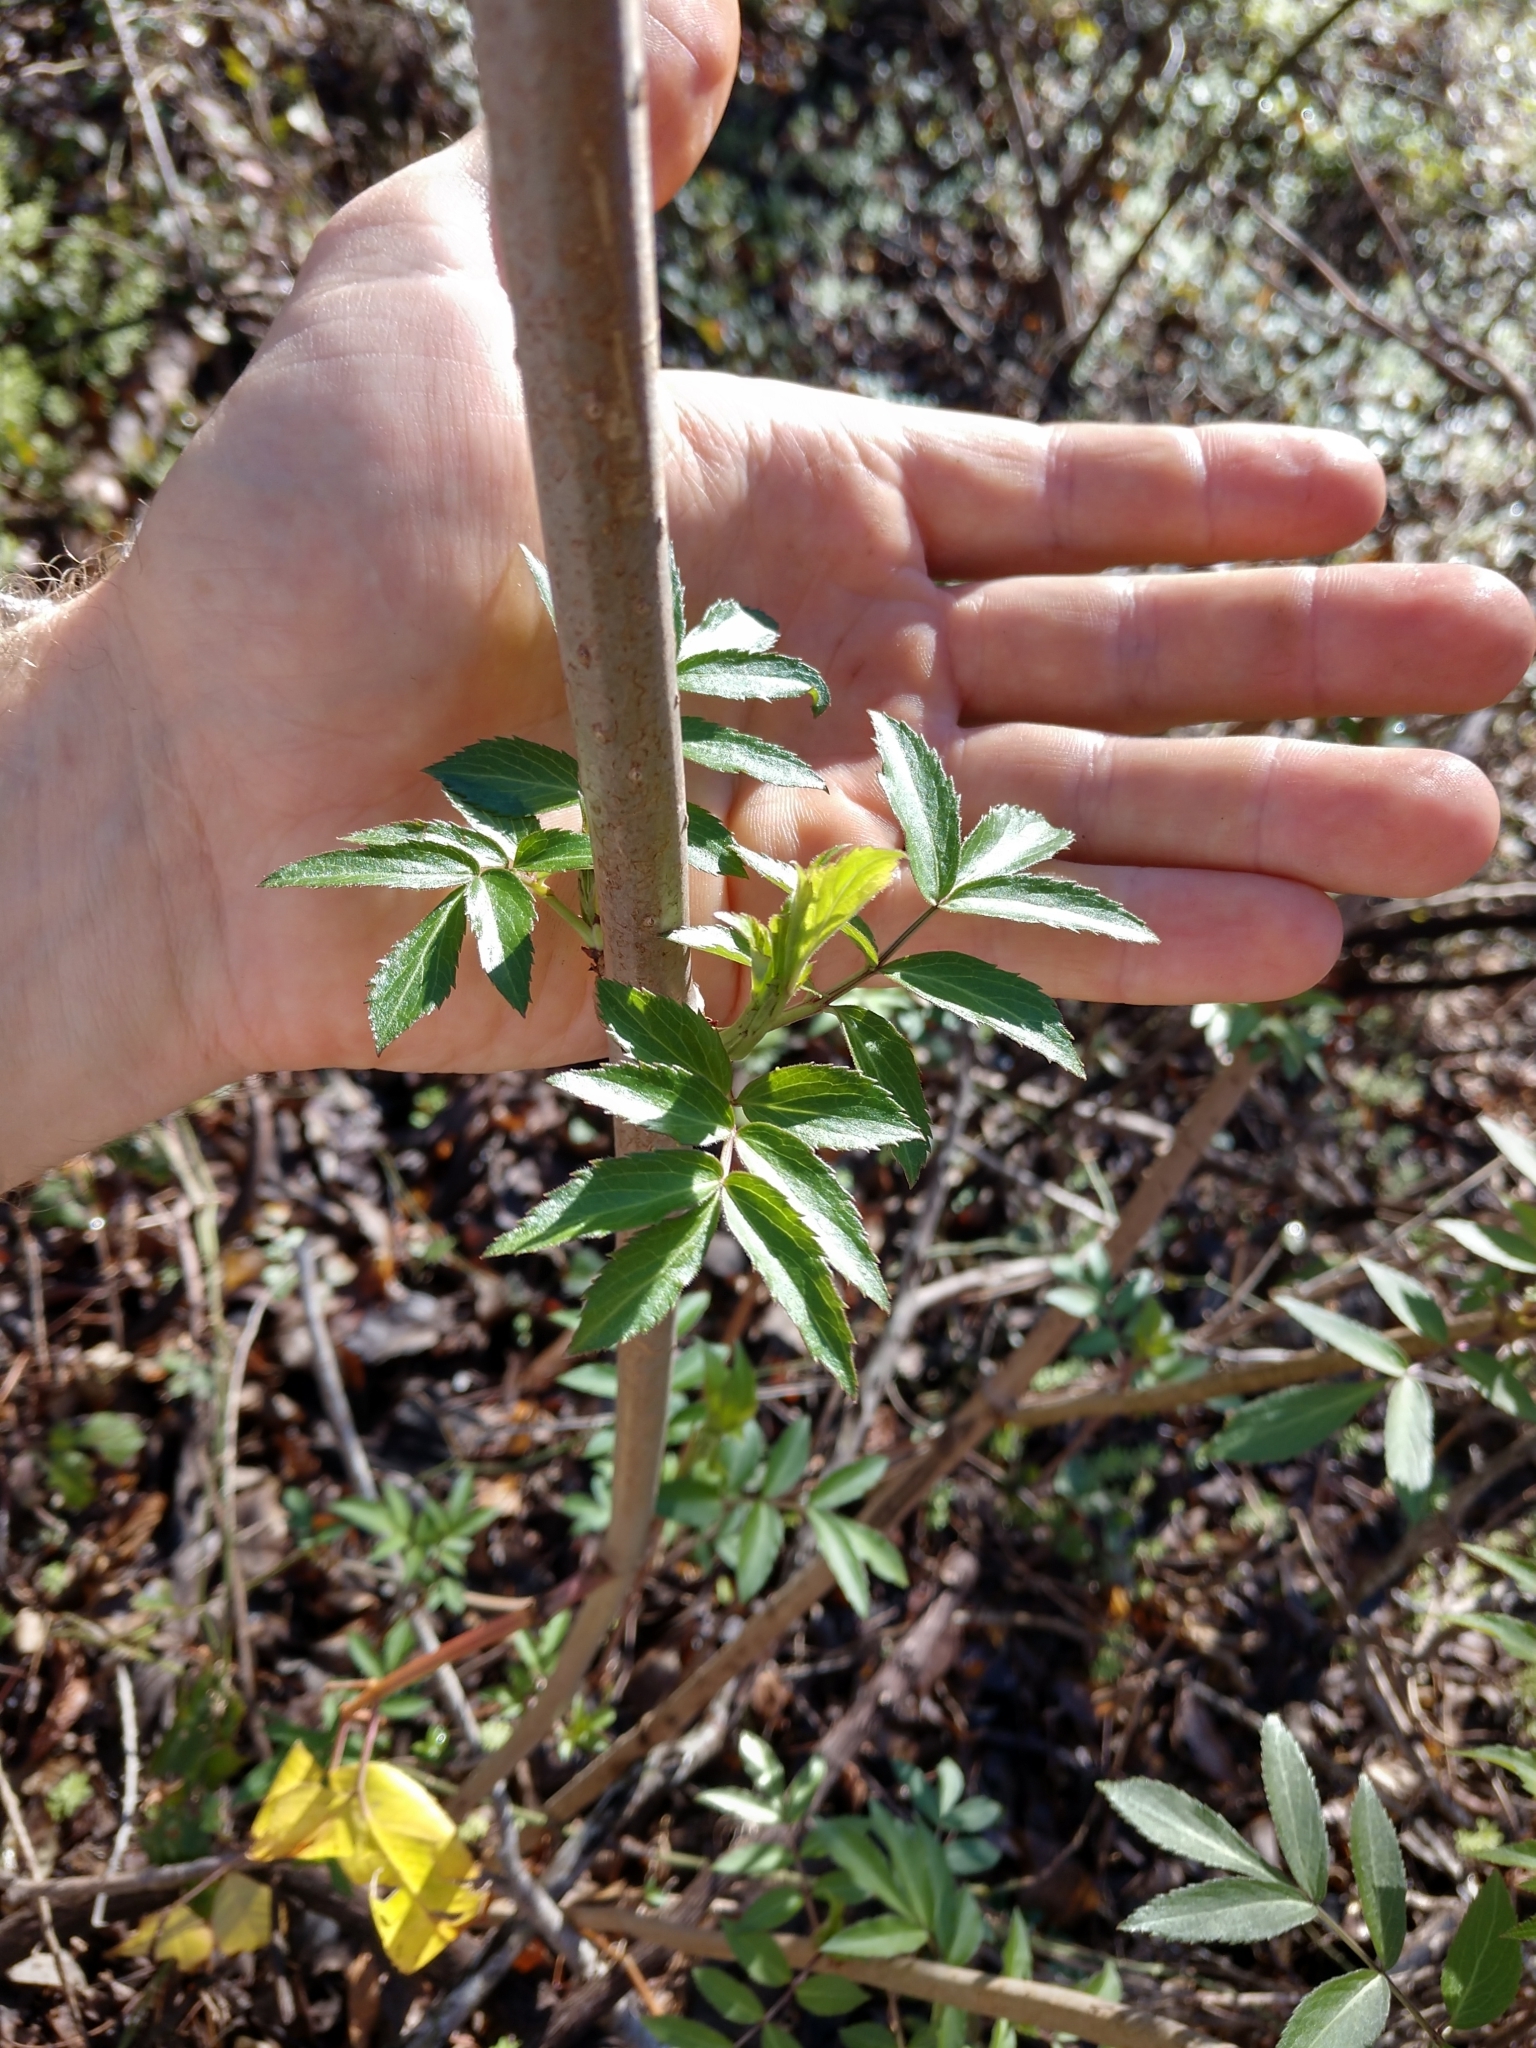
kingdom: Plantae
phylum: Tracheophyta
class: Magnoliopsida
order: Dipsacales
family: Viburnaceae
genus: Sambucus
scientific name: Sambucus canadensis
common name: American elder
